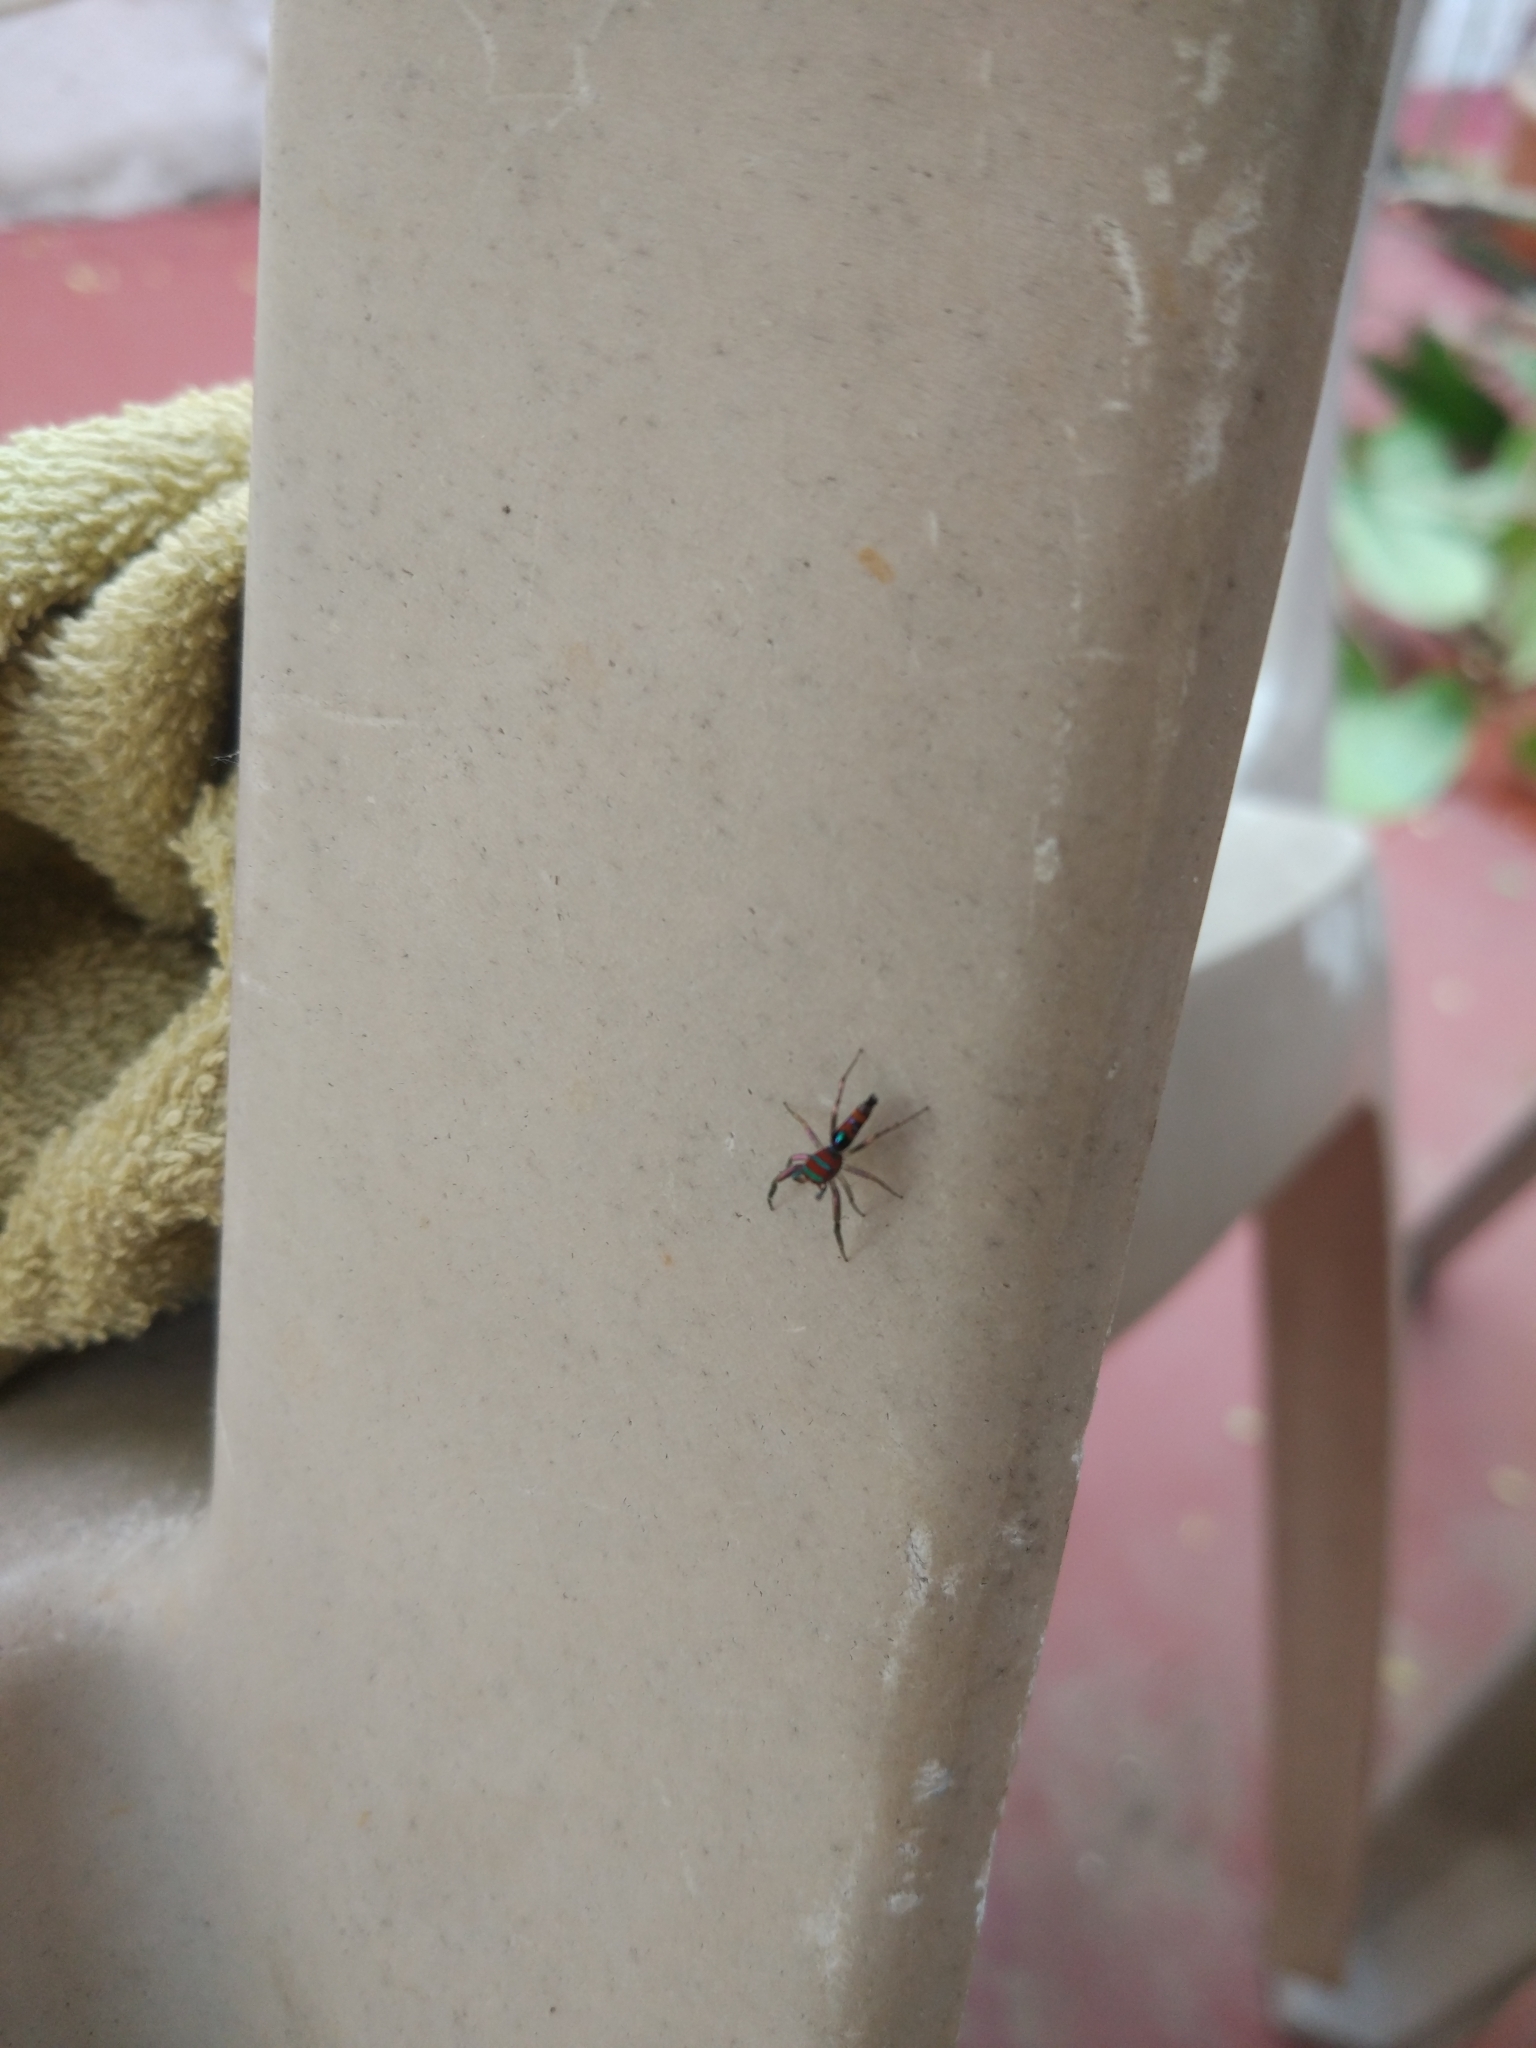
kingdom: Animalia
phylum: Arthropoda
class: Arachnida
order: Araneae
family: Salticidae
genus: Chrysilla
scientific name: Chrysilla volupe
